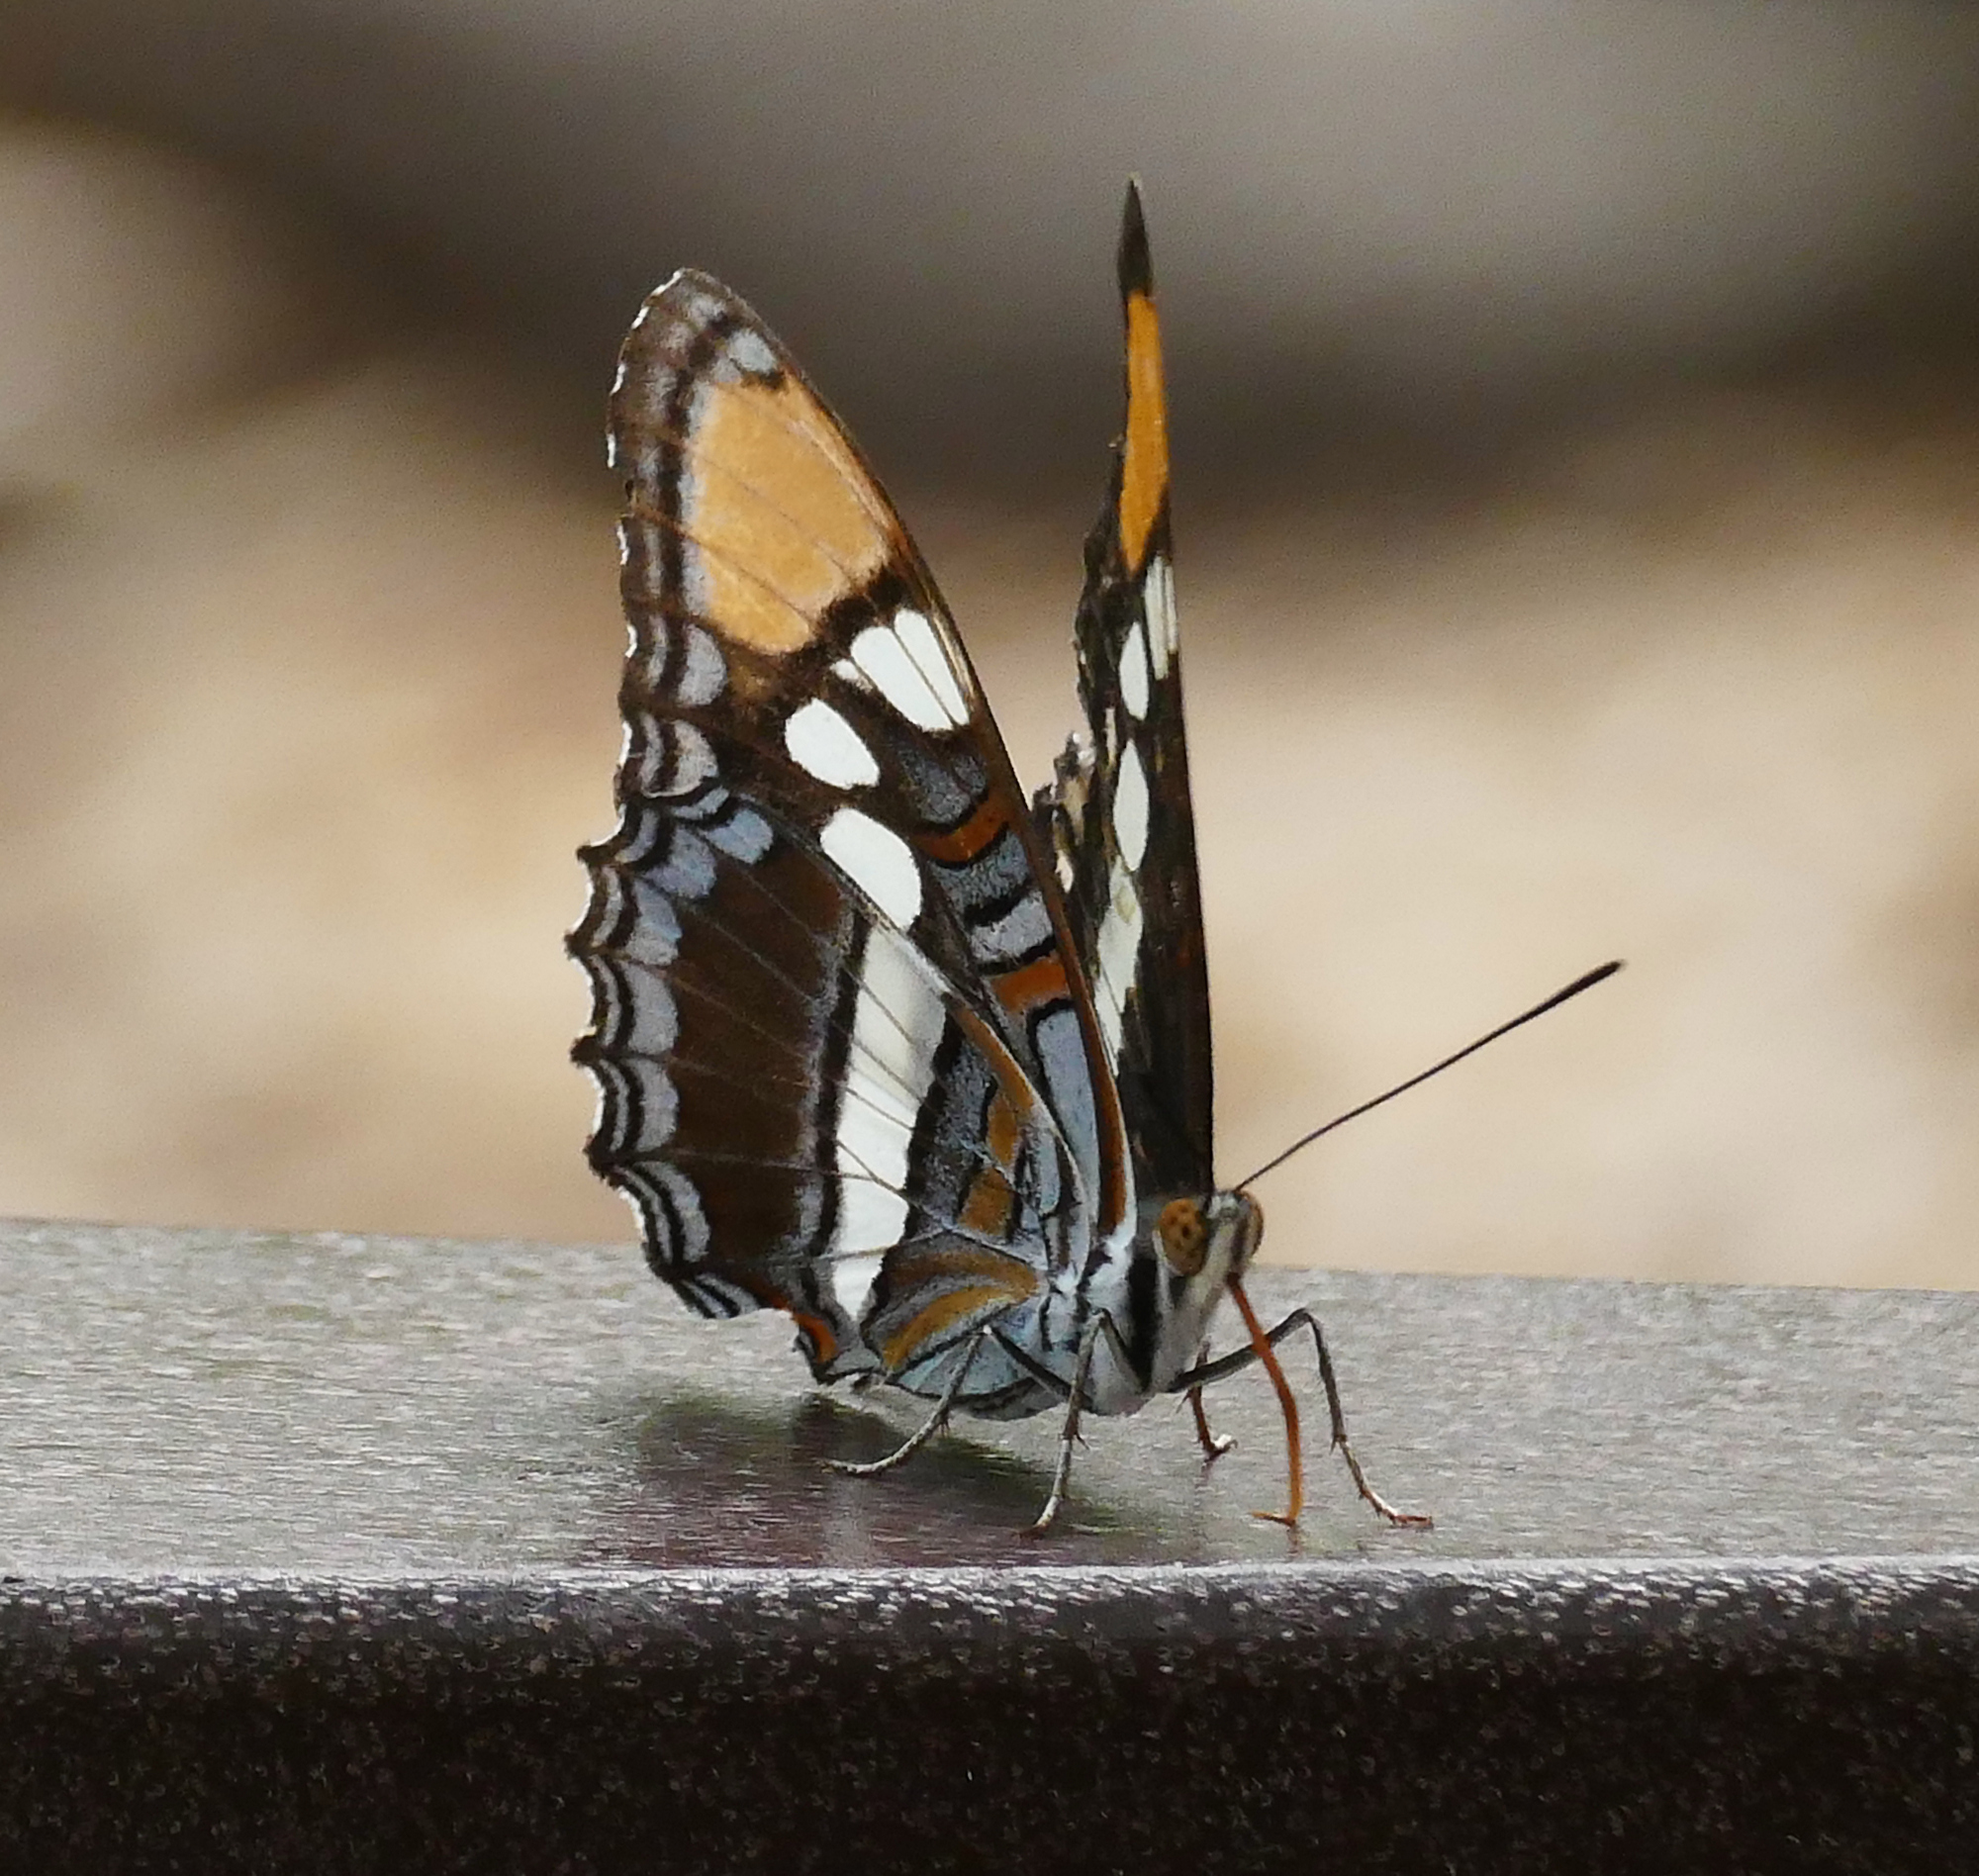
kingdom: Animalia
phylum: Arthropoda
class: Insecta
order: Lepidoptera
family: Nymphalidae
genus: Limenitis
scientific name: Limenitis bredowii
